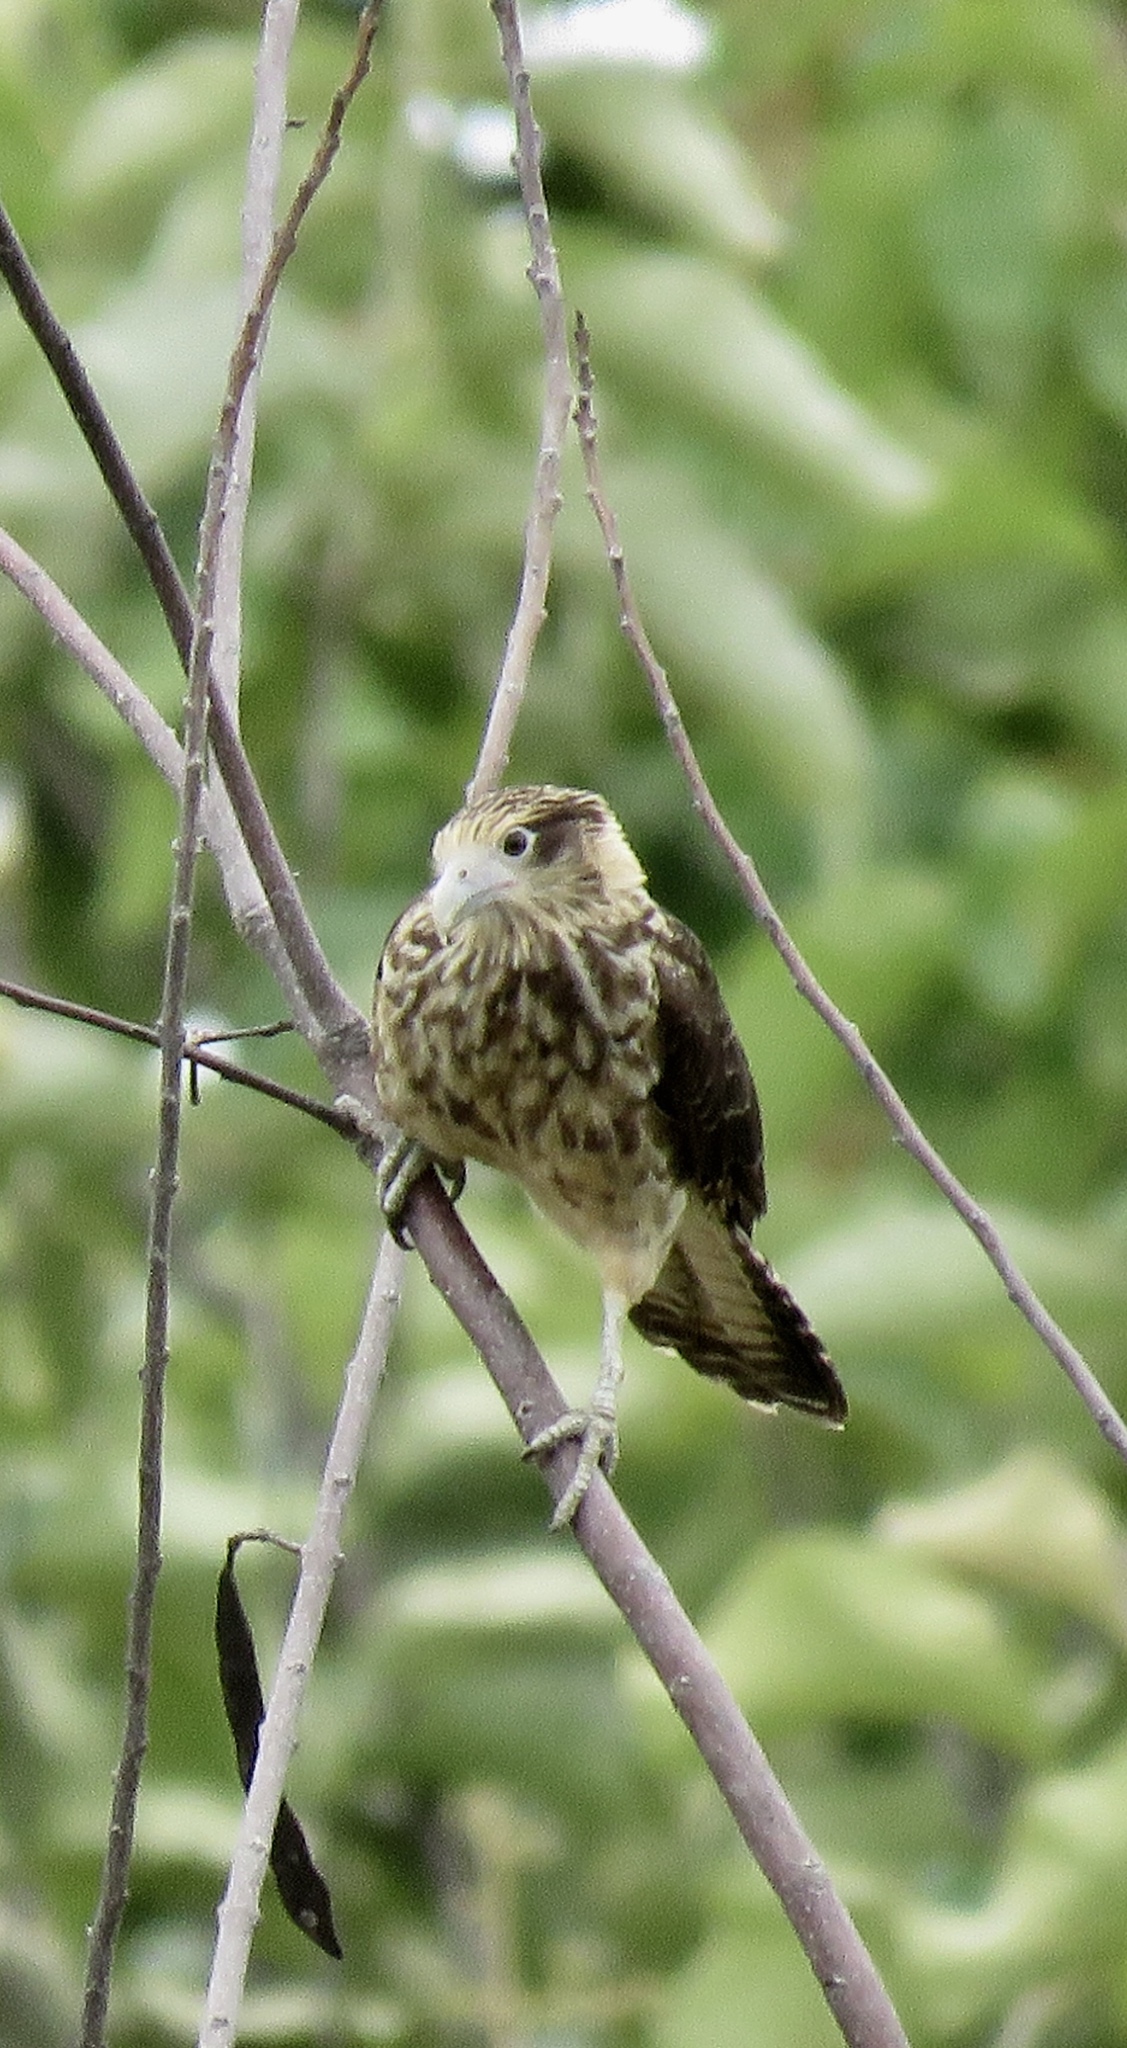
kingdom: Animalia
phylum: Chordata
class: Aves
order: Falconiformes
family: Falconidae
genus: Daptrius
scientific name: Daptrius
